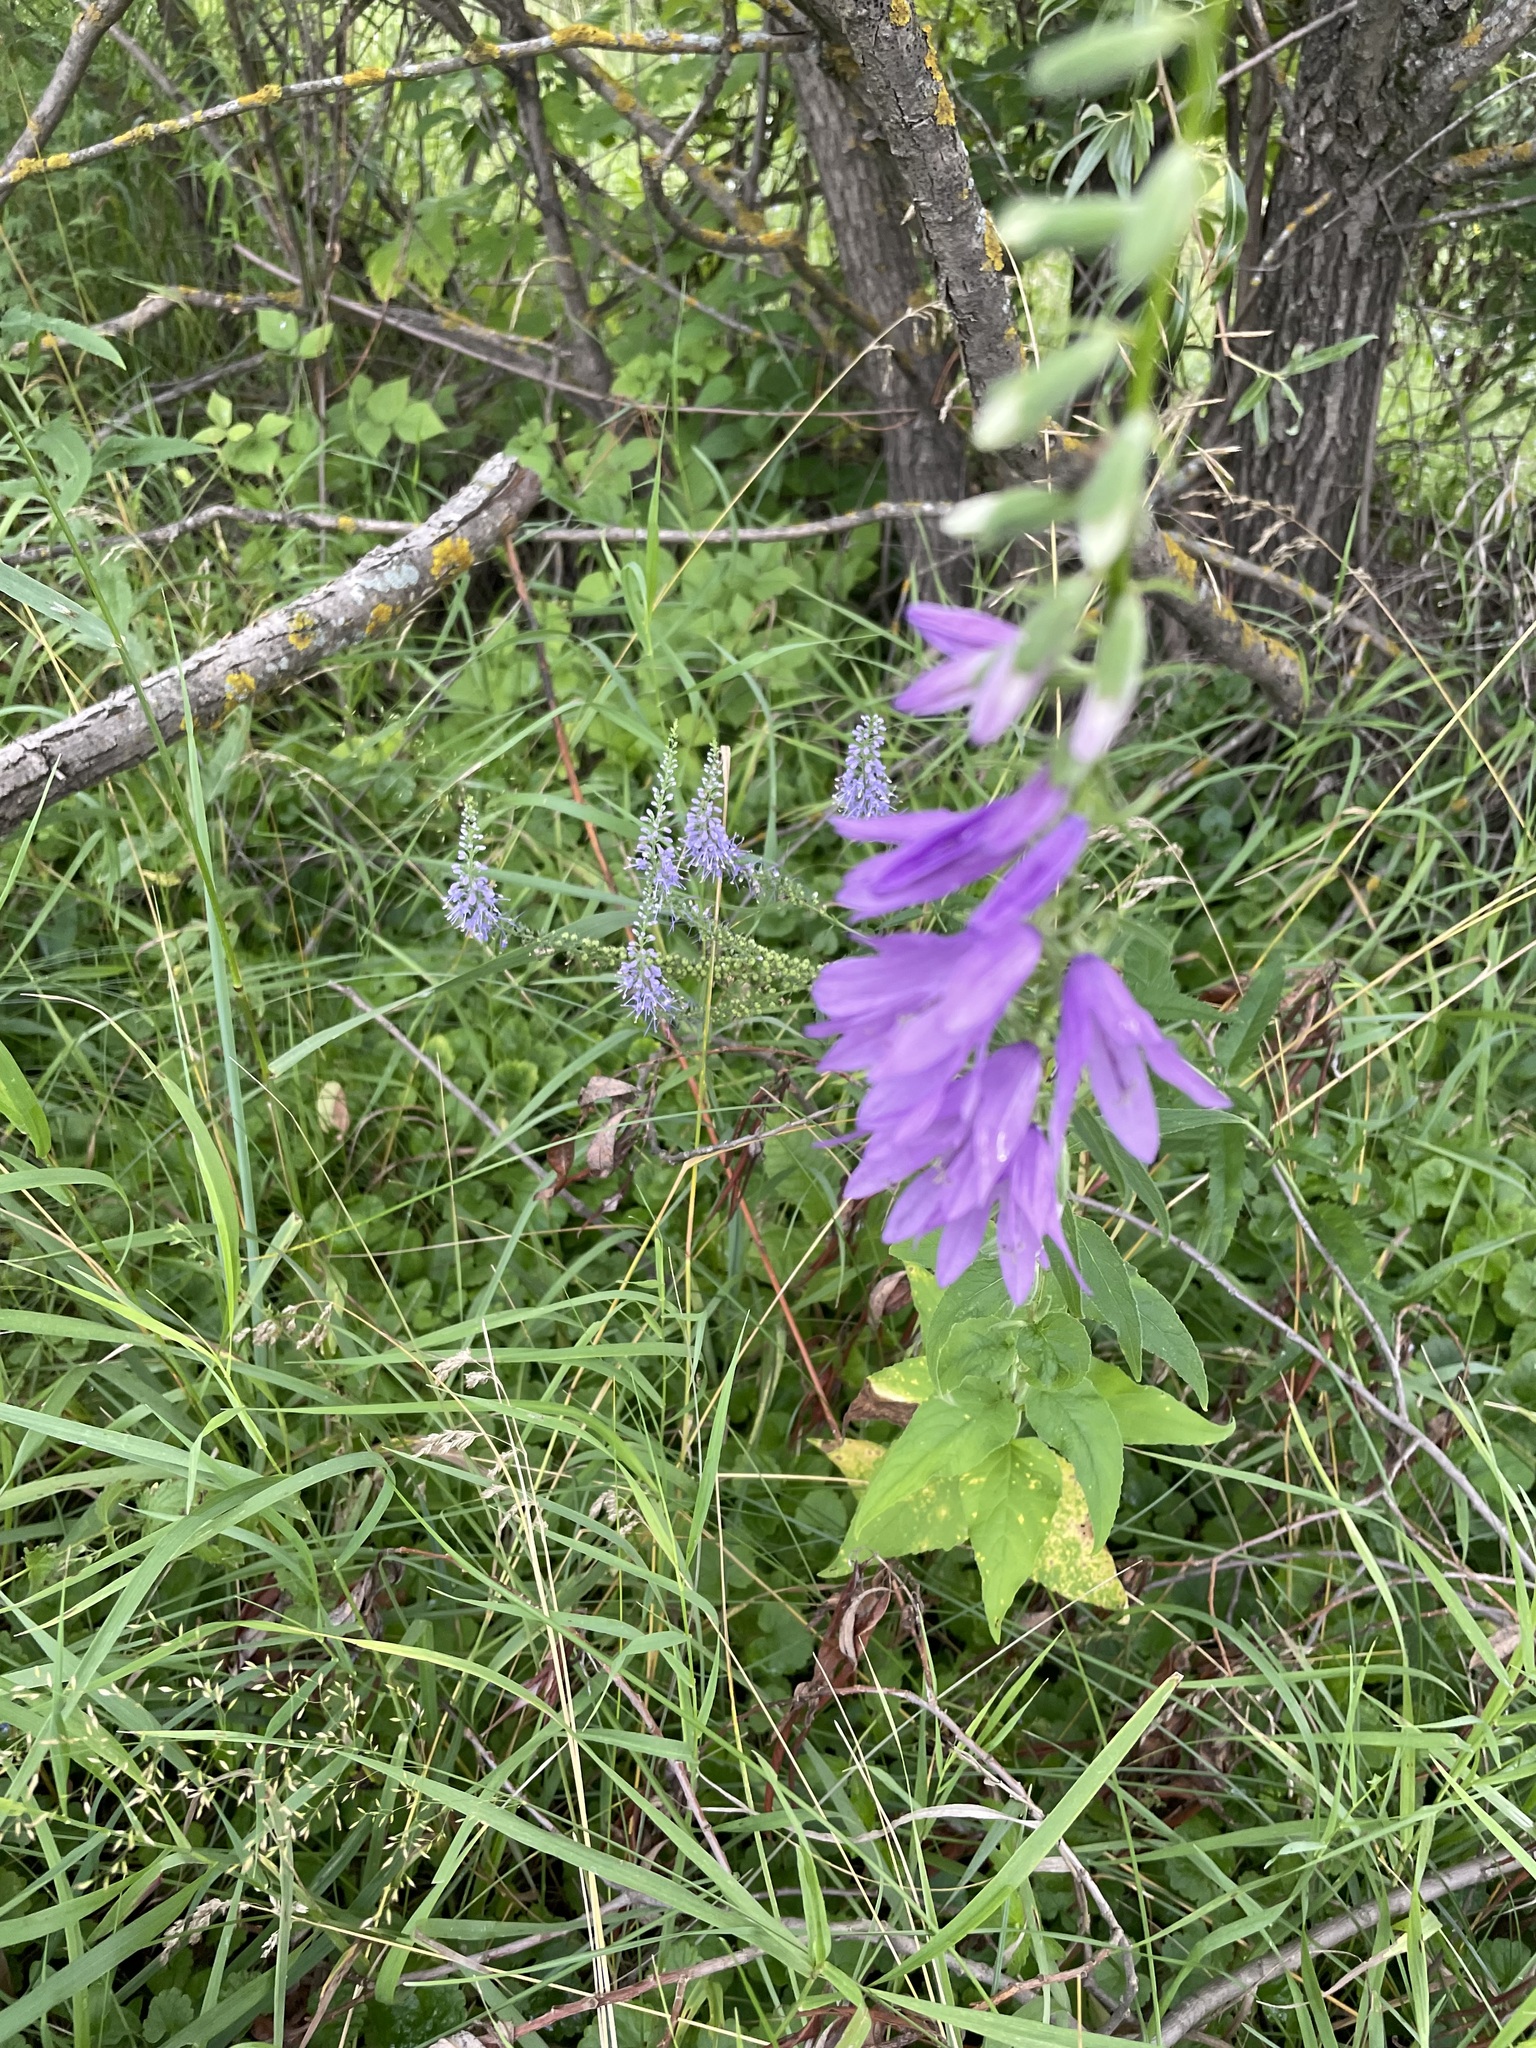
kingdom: Plantae
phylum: Tracheophyta
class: Magnoliopsida
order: Asterales
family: Campanulaceae
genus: Campanula
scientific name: Campanula rapunculoides
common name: Creeping bellflower
